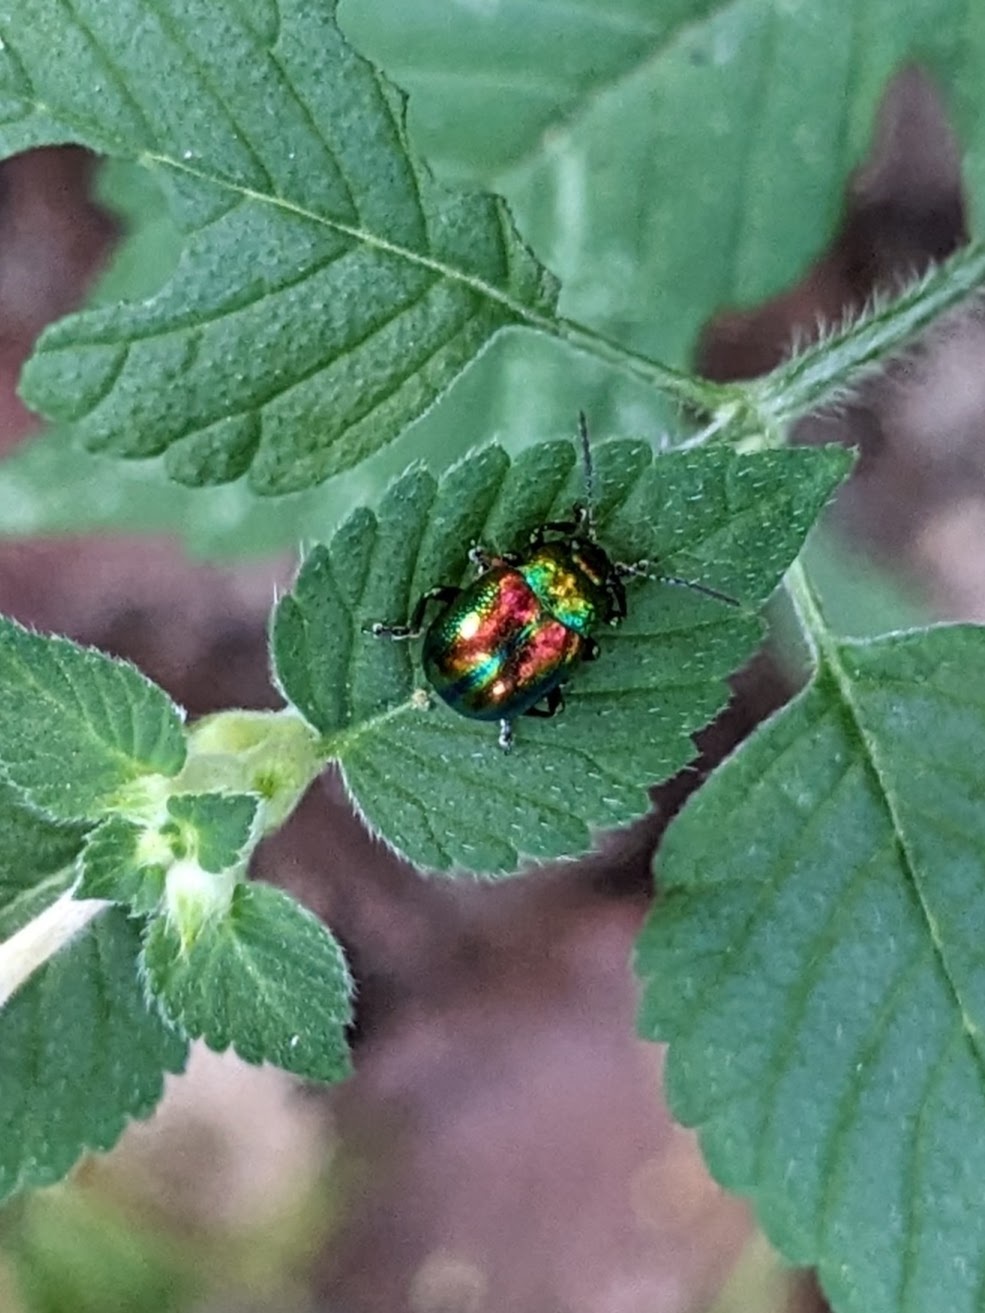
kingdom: Animalia
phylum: Arthropoda
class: Insecta
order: Coleoptera
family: Chrysomelidae
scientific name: Chrysomelidae
